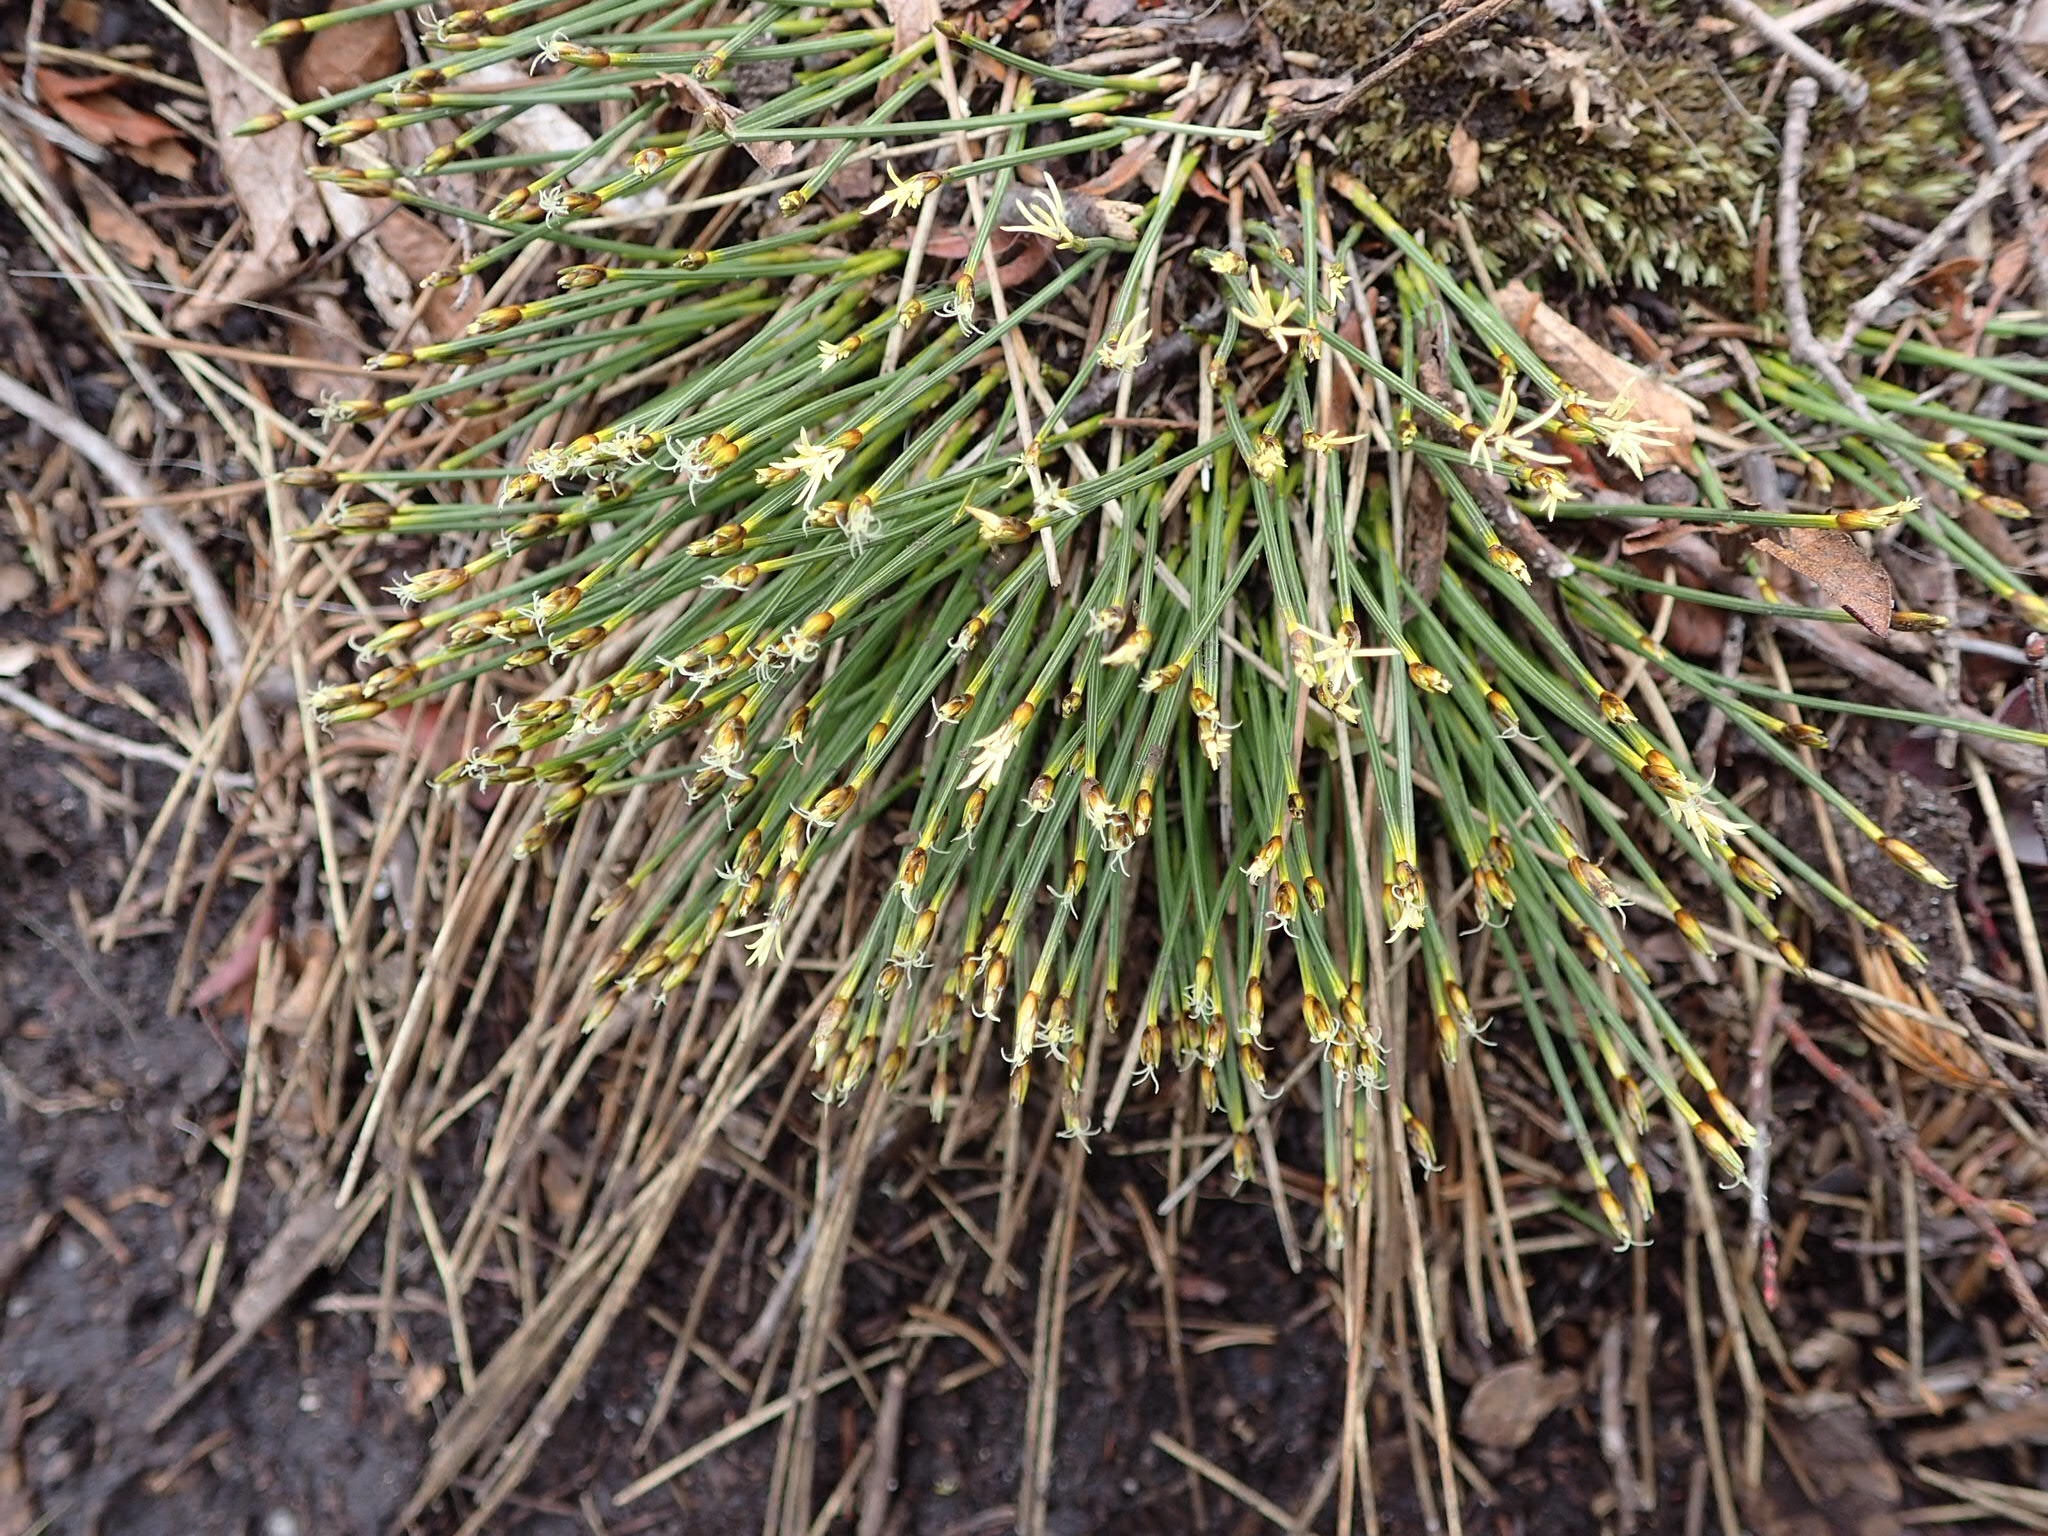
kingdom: Plantae
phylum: Tracheophyta
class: Liliopsida
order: Poales
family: Cyperaceae
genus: Trichophorum
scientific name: Trichophorum cespitosum
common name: Cespitose bulrush
